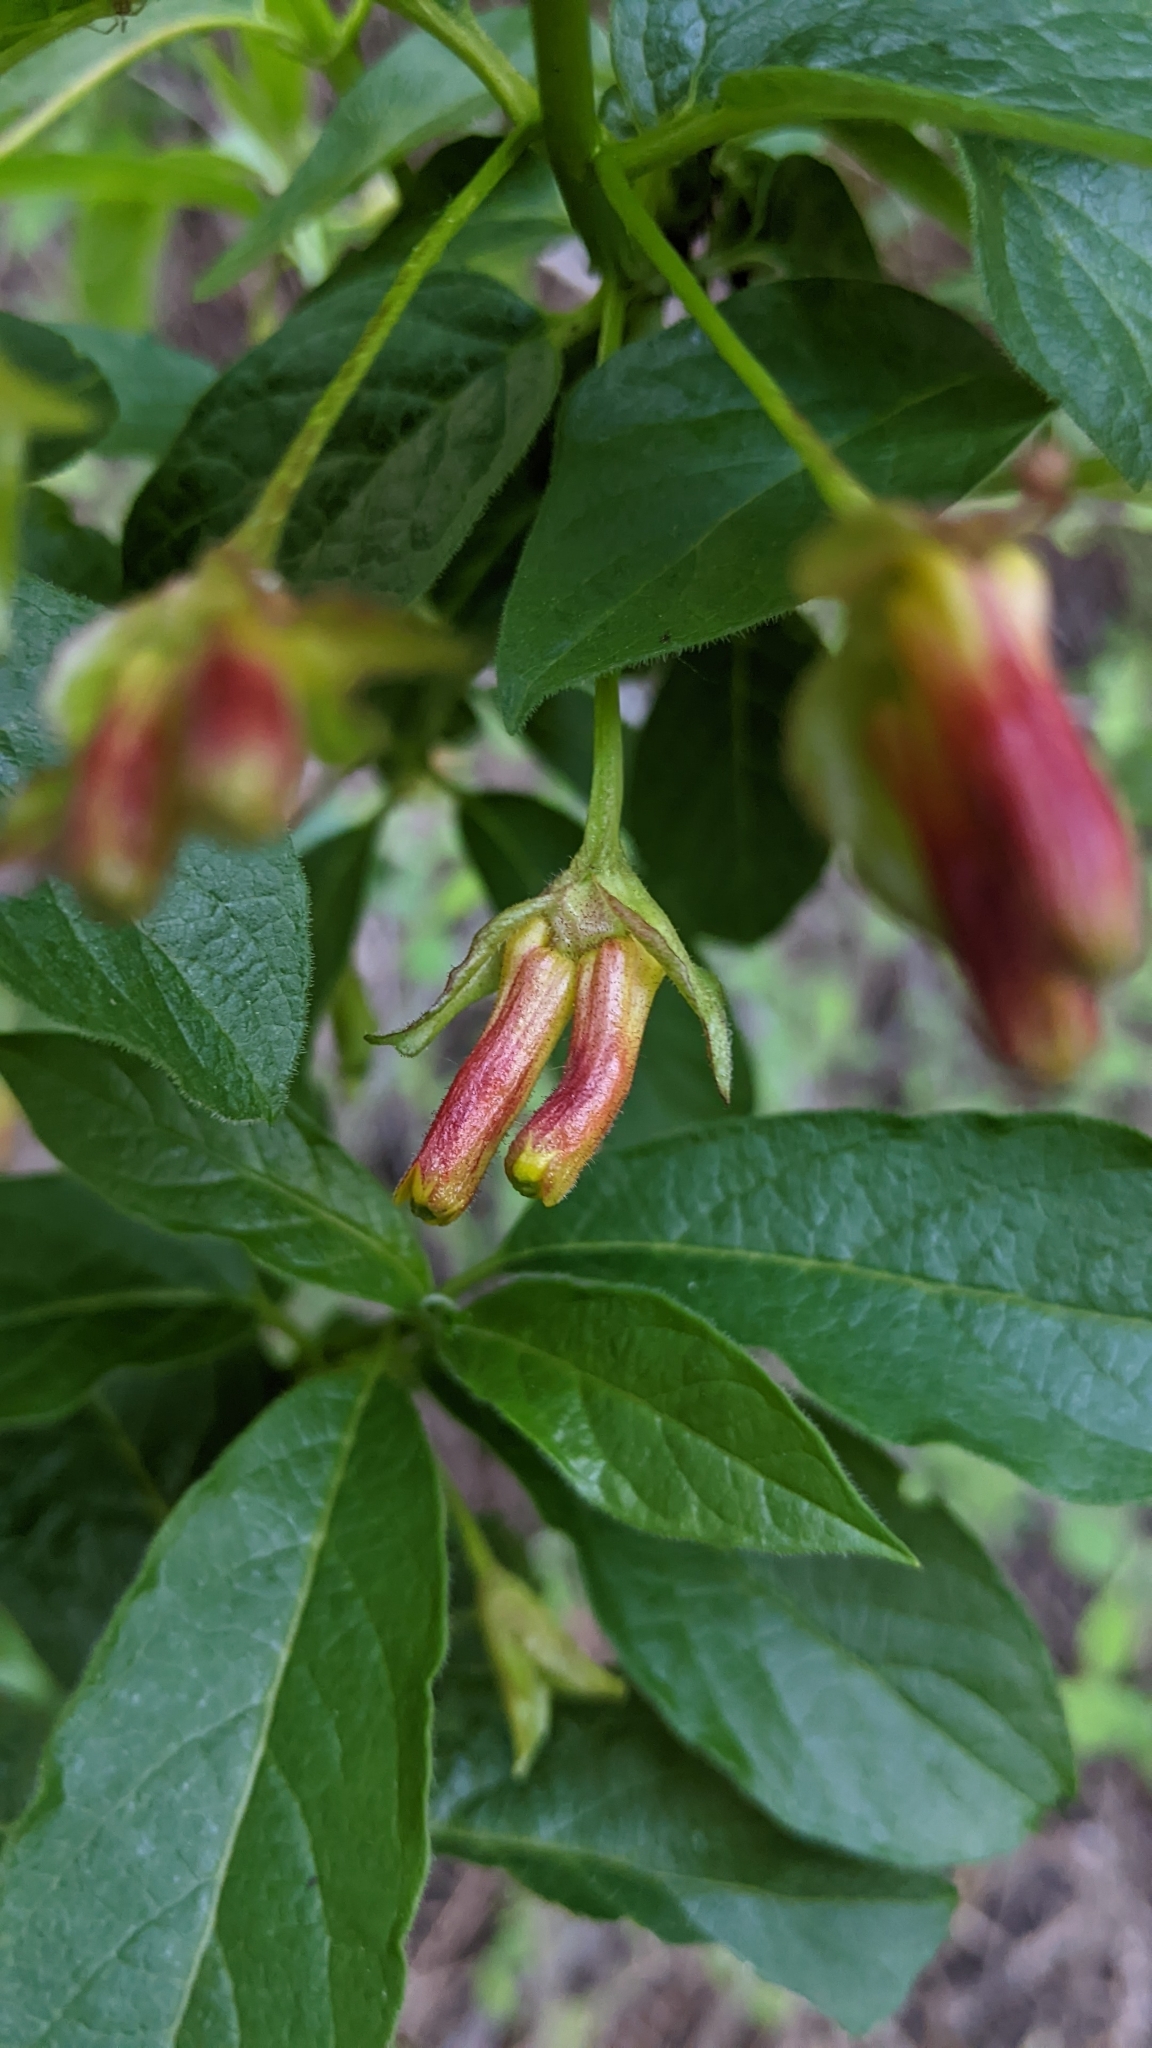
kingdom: Plantae
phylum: Tracheophyta
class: Magnoliopsida
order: Dipsacales
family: Caprifoliaceae
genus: Lonicera
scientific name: Lonicera involucrata
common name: Californian honeysuckle
